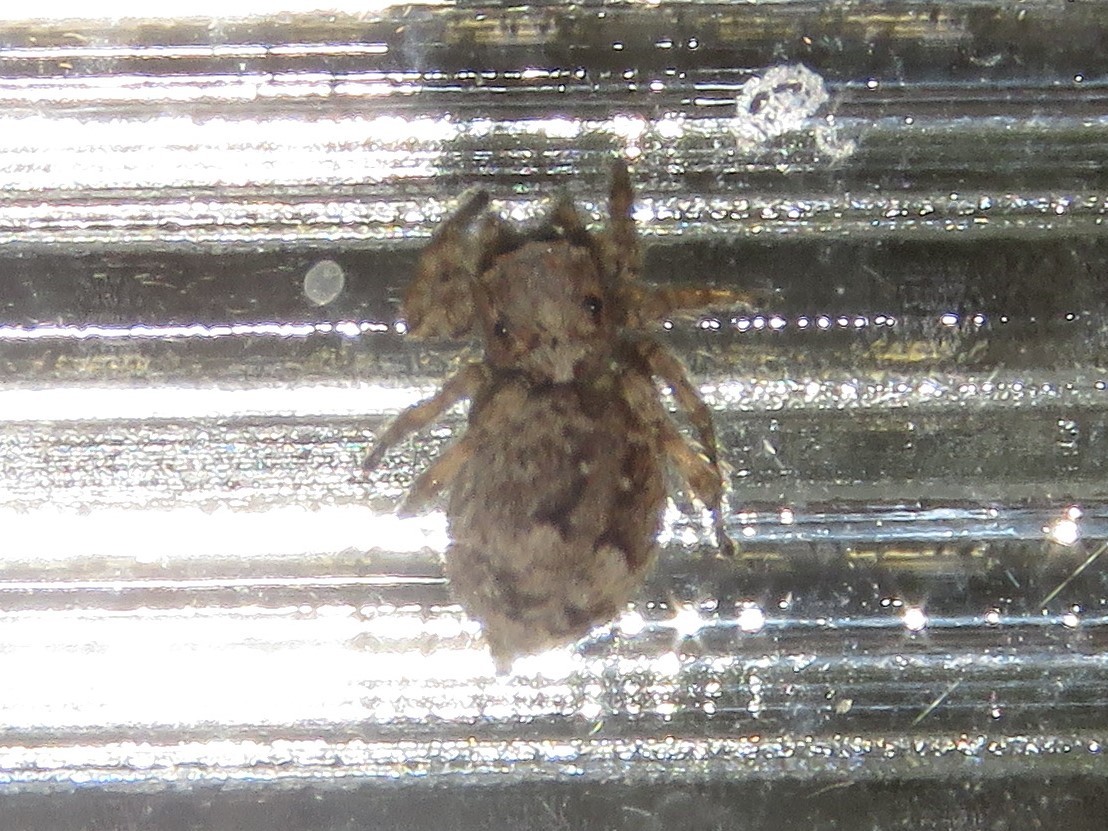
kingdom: Animalia
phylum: Arthropoda
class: Arachnida
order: Araneae
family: Salticidae
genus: Attulus
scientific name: Attulus fasciger
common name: Asiatic wall jumping spider
